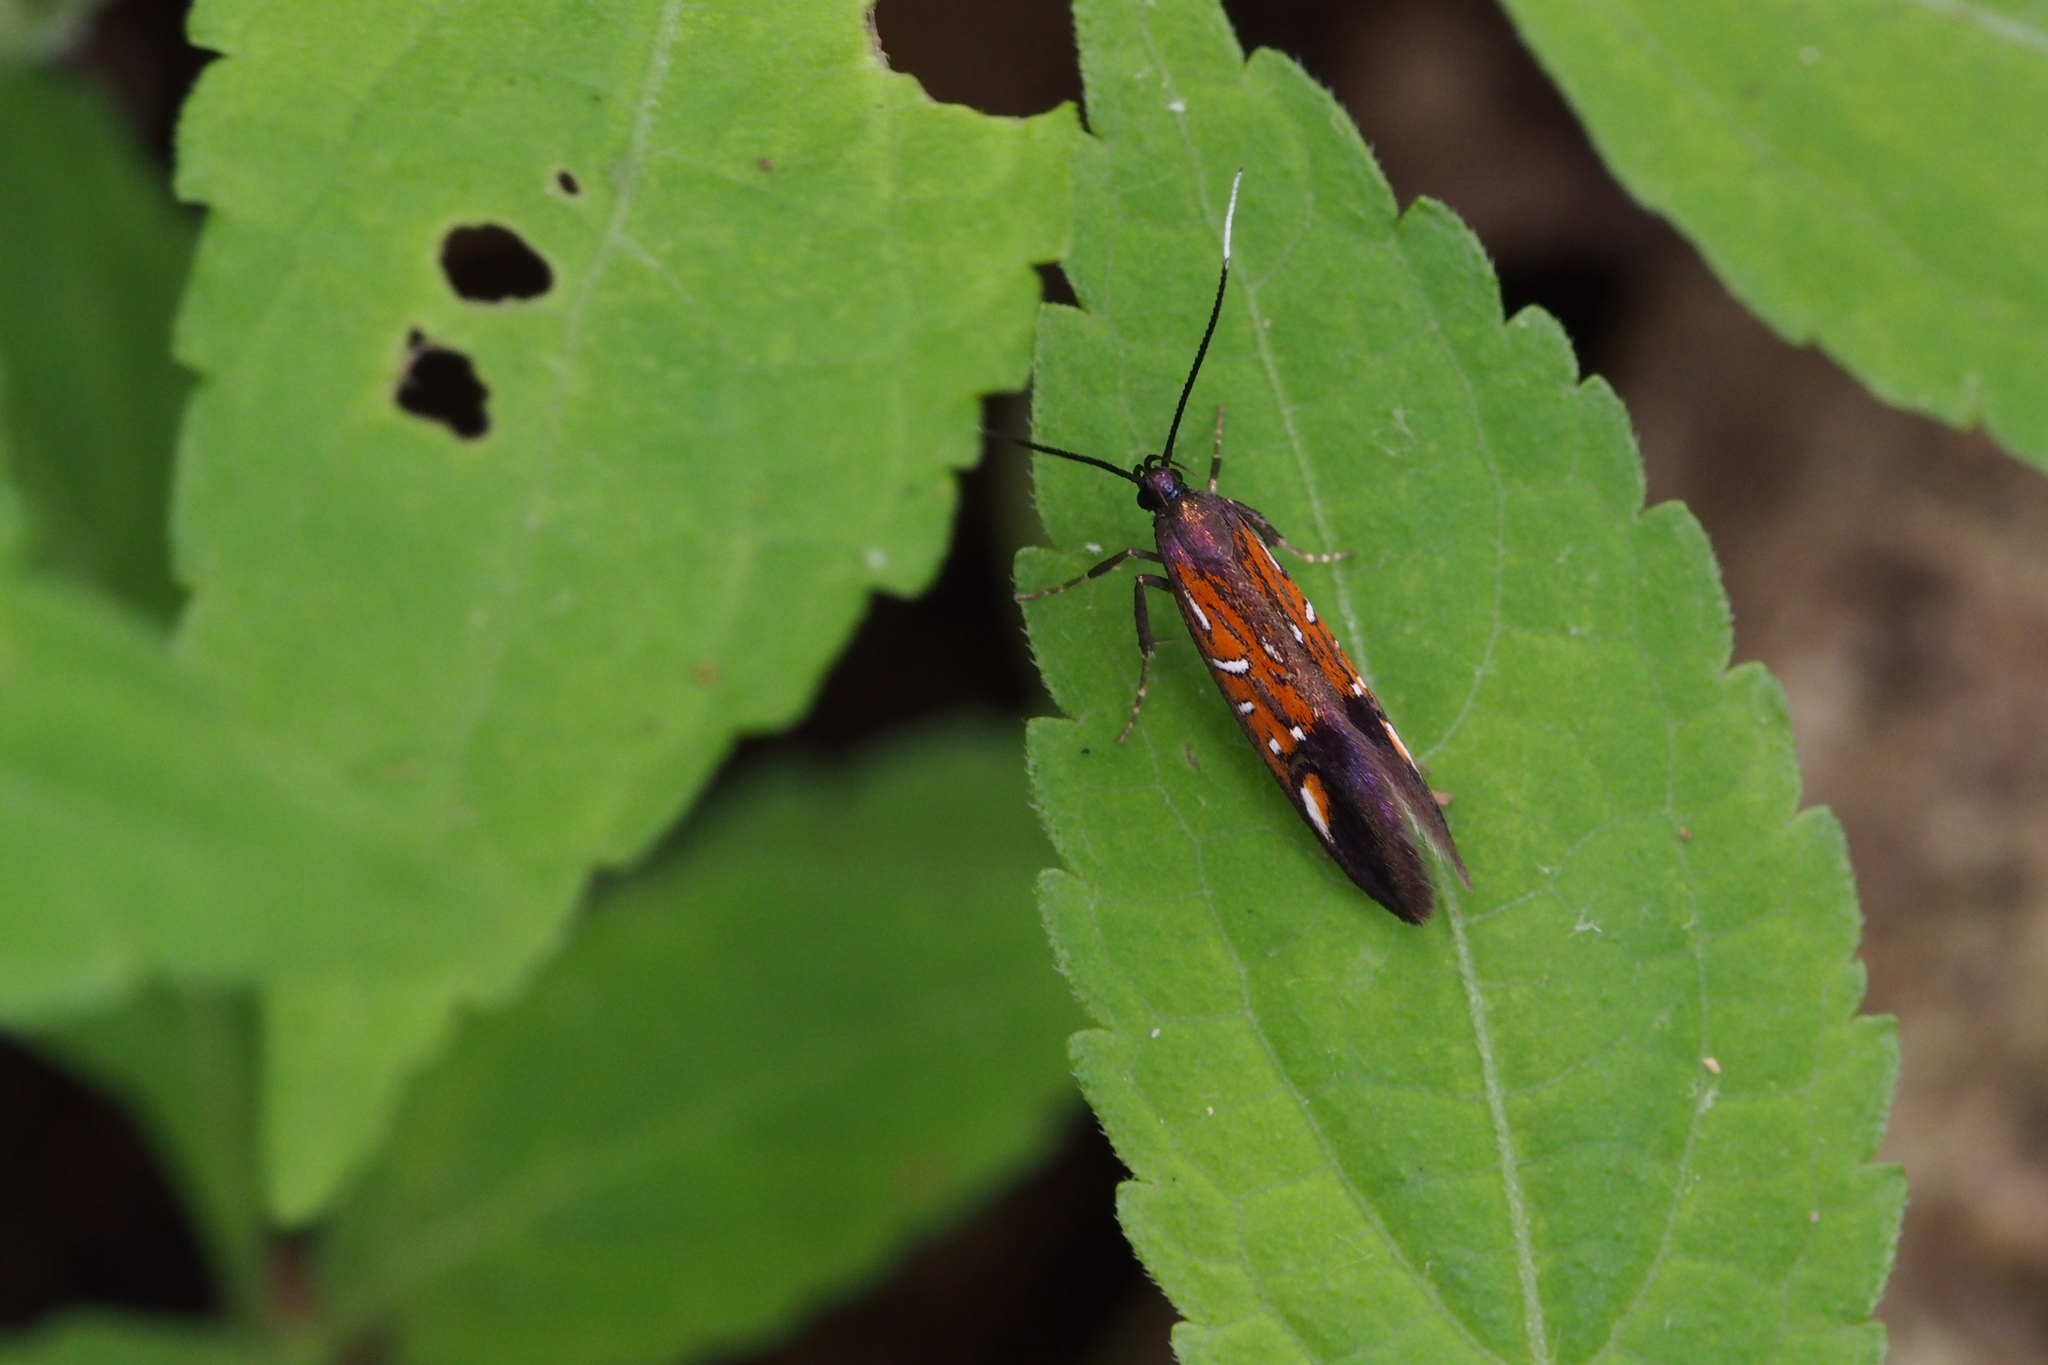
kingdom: Animalia
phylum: Arthropoda
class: Insecta
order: Lepidoptera
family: Oecophoridae
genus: Schiffermuelleria
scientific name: Schiffermuelleria zelleri
